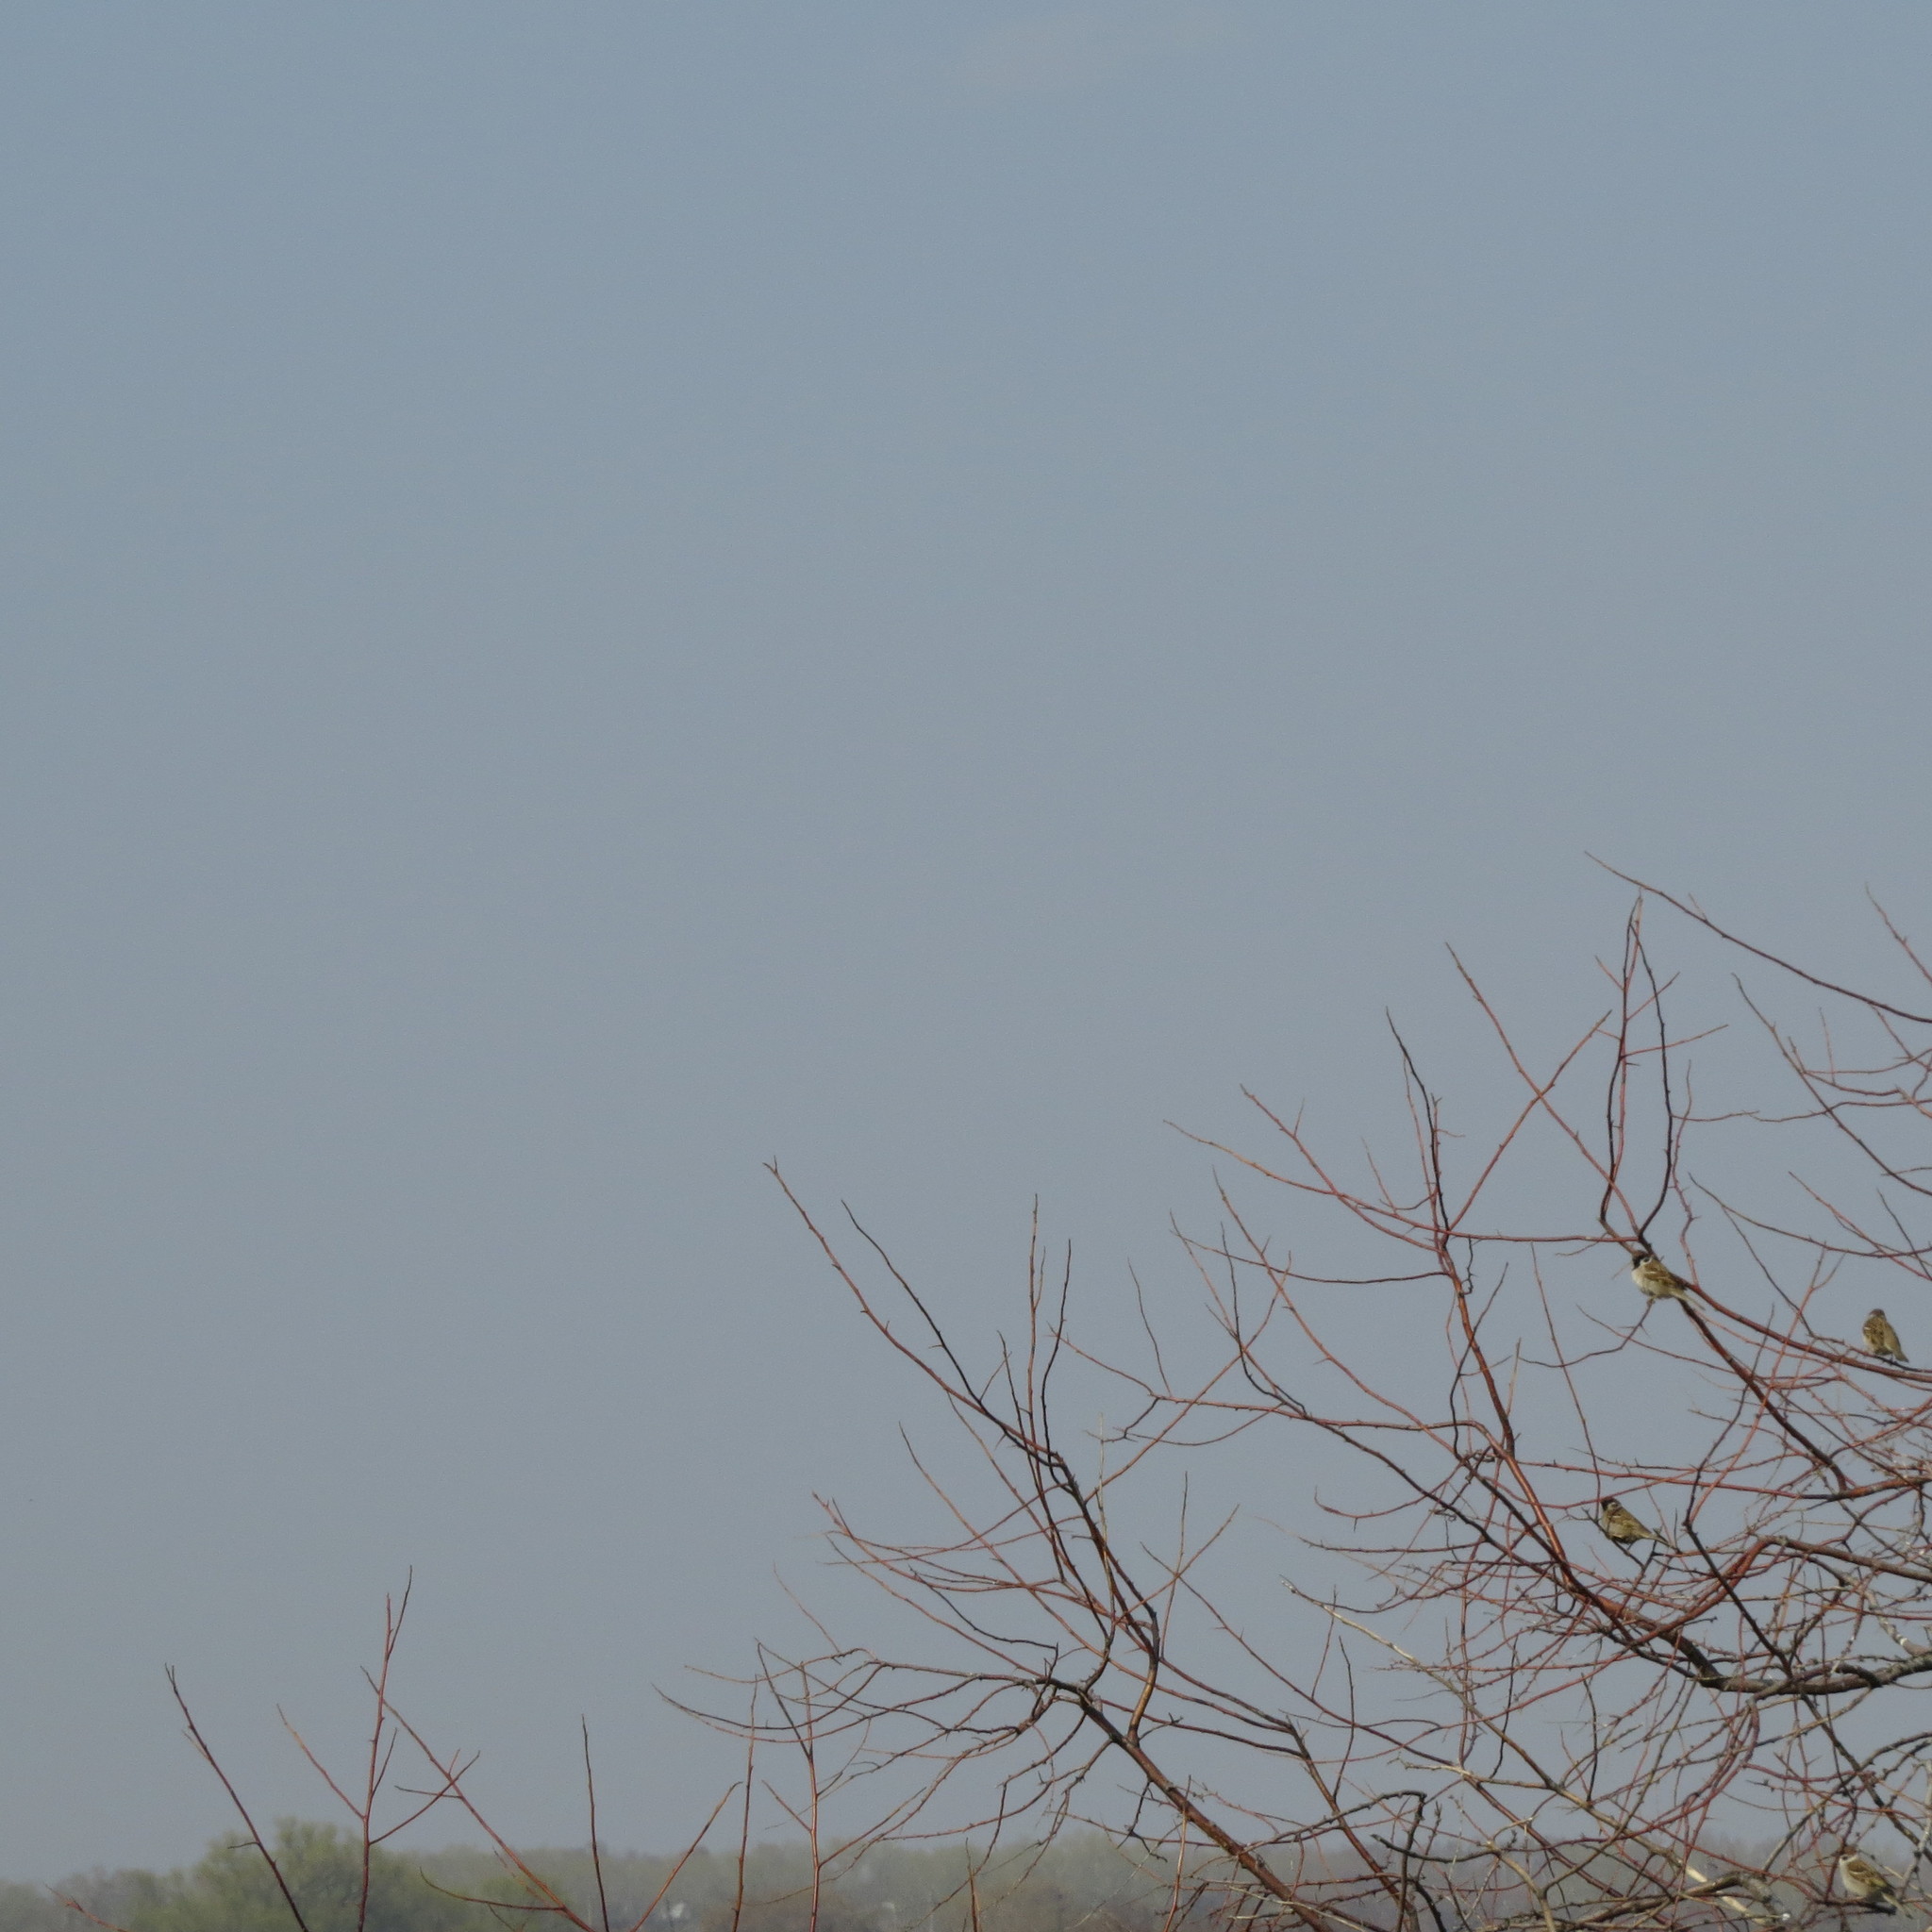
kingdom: Animalia
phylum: Chordata
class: Aves
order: Passeriformes
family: Passeridae
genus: Passer
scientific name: Passer montanus
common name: Eurasian tree sparrow
